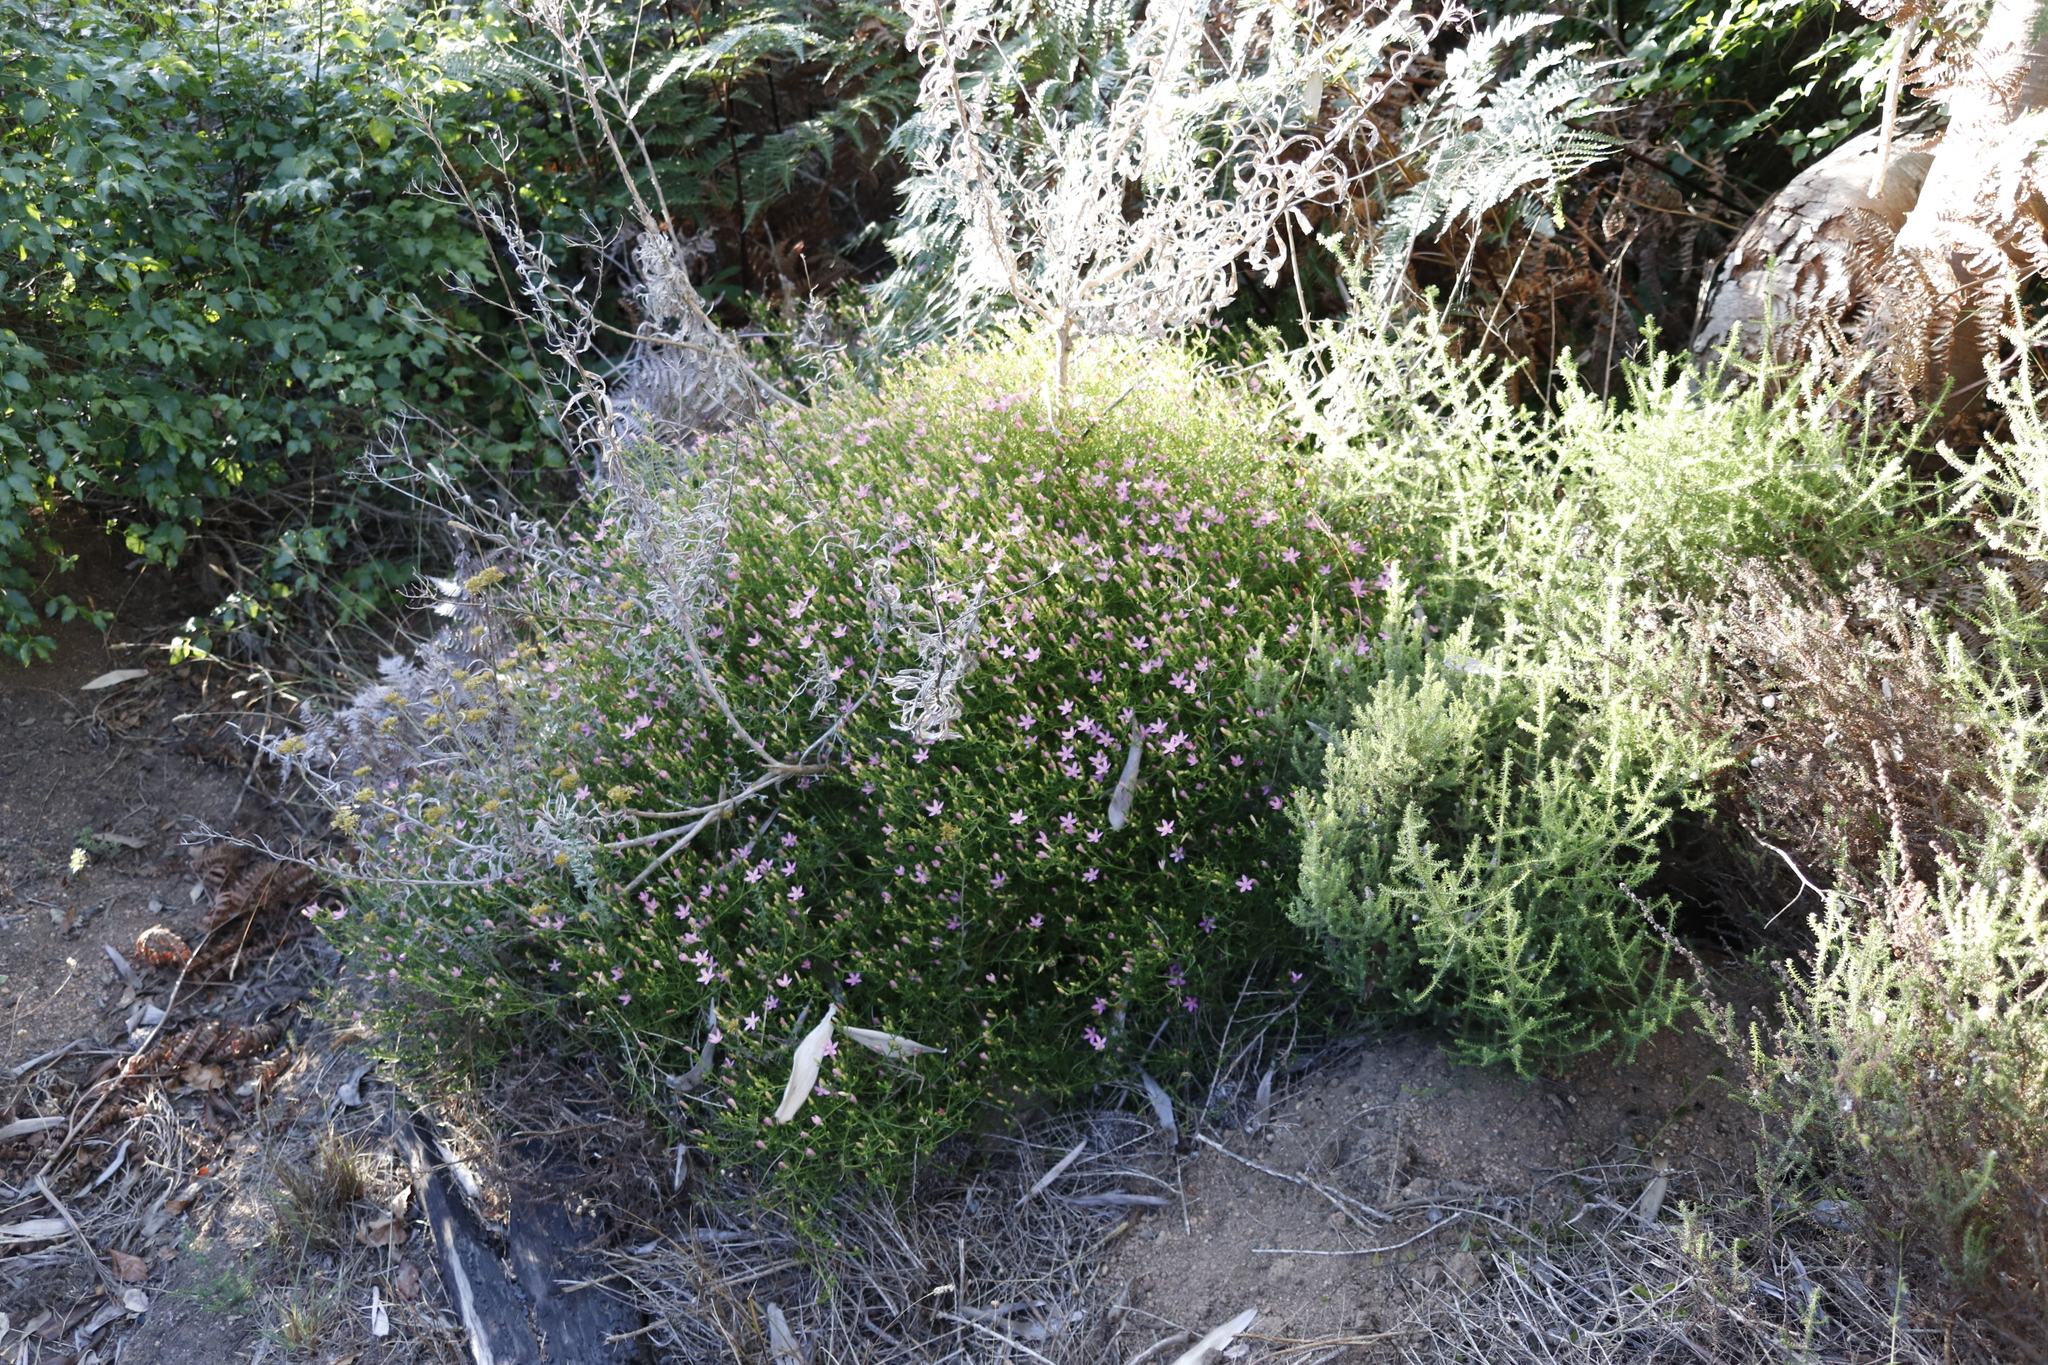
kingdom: Plantae
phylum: Tracheophyta
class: Magnoliopsida
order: Gentianales
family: Gentianaceae
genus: Chironia
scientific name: Chironia baccifera
